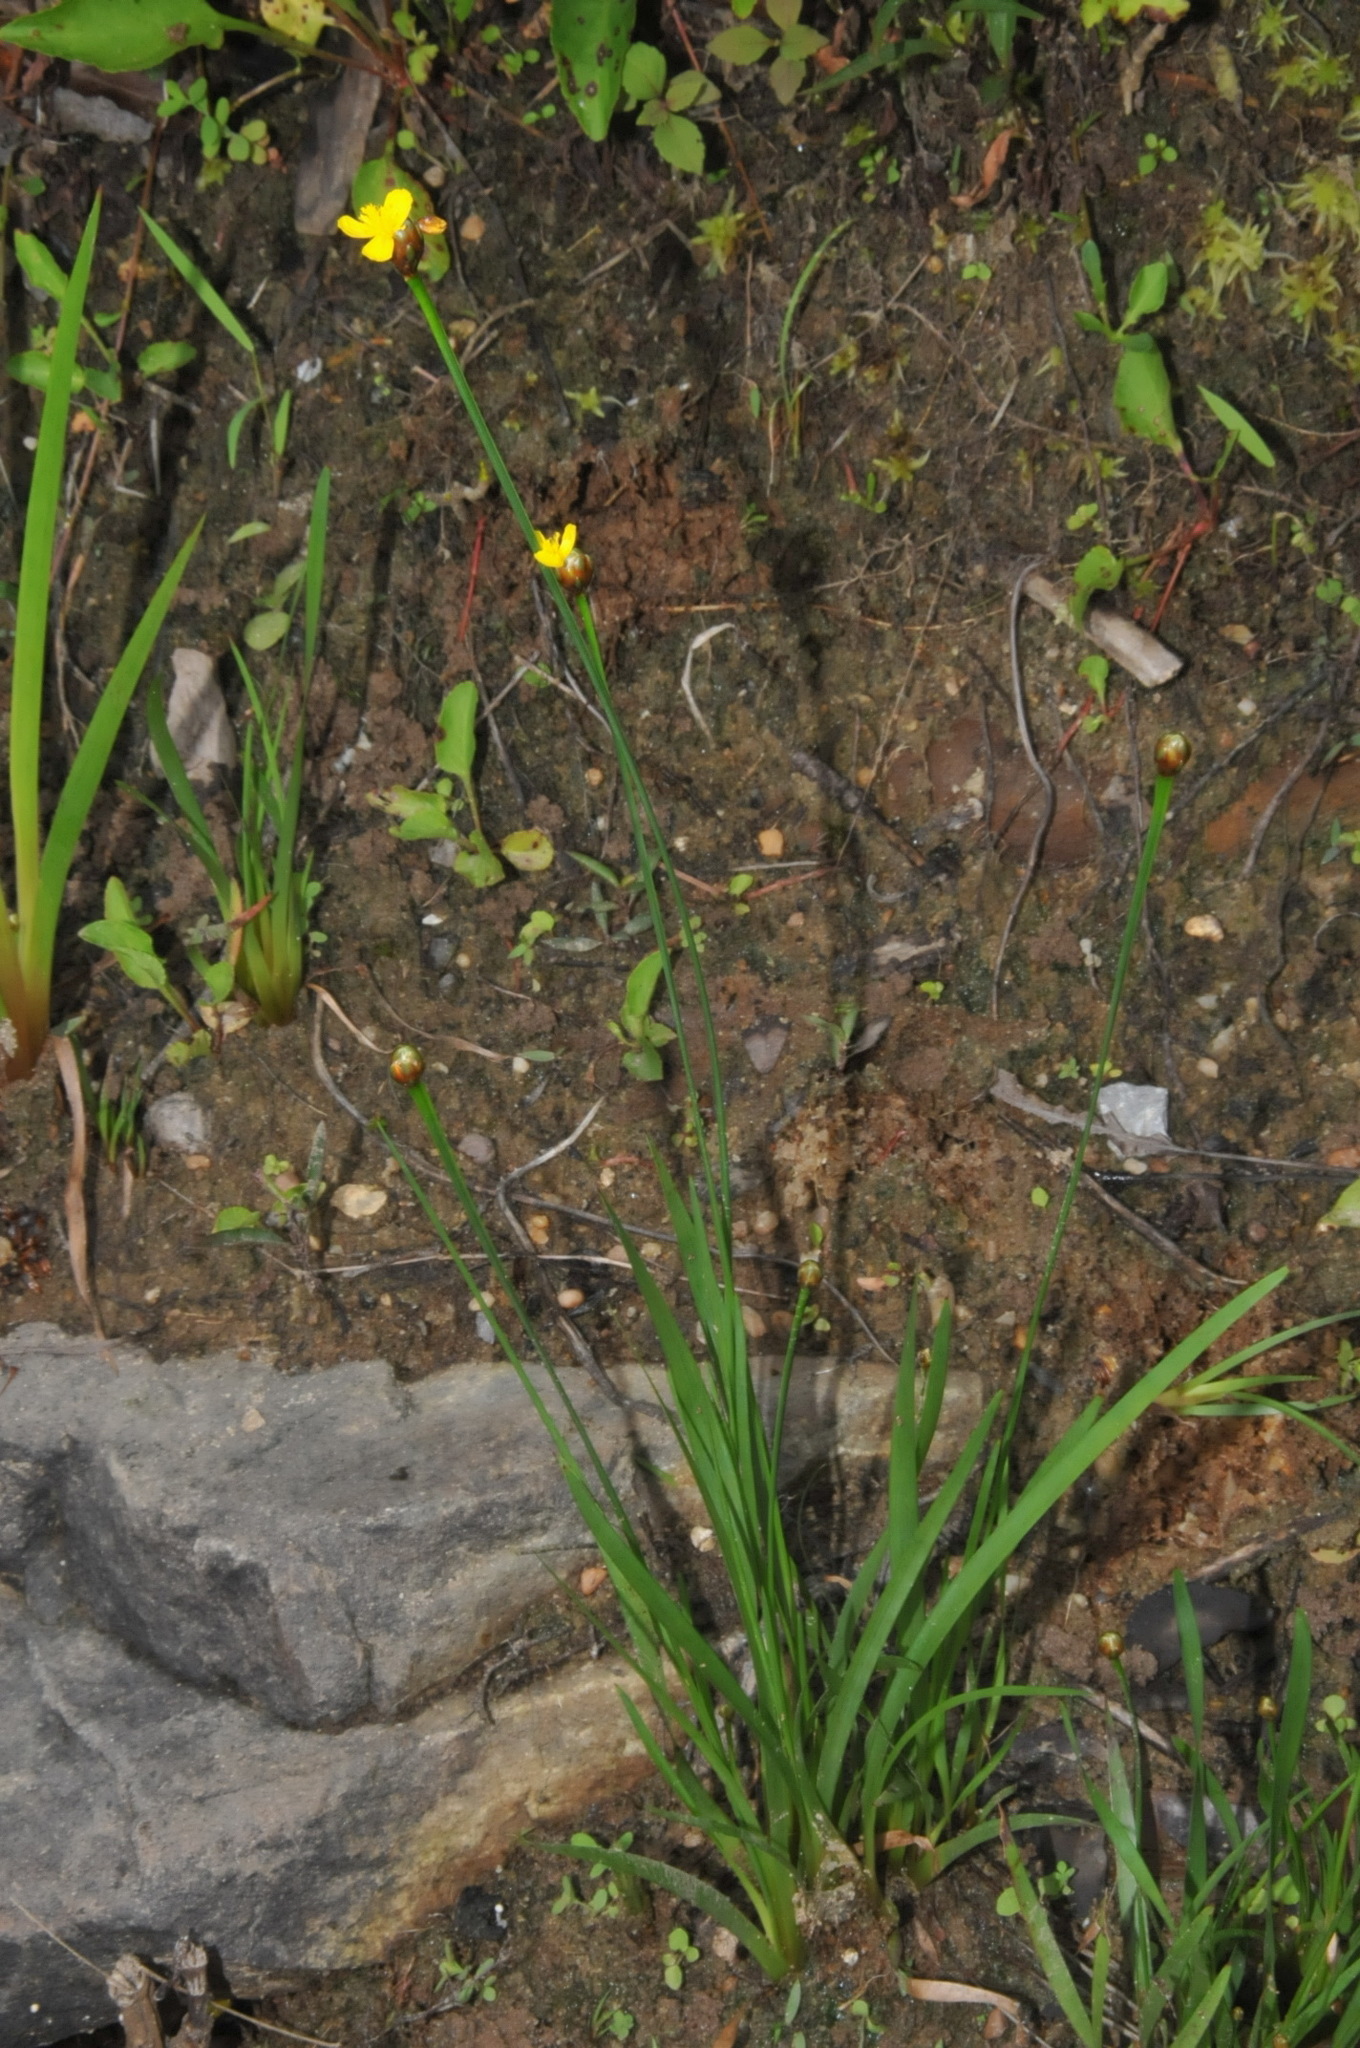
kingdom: Plantae
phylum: Tracheophyta
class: Liliopsida
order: Poales
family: Xyridaceae
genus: Xyris
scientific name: Xyris difformis
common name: Bog yellow-eyed-grass
